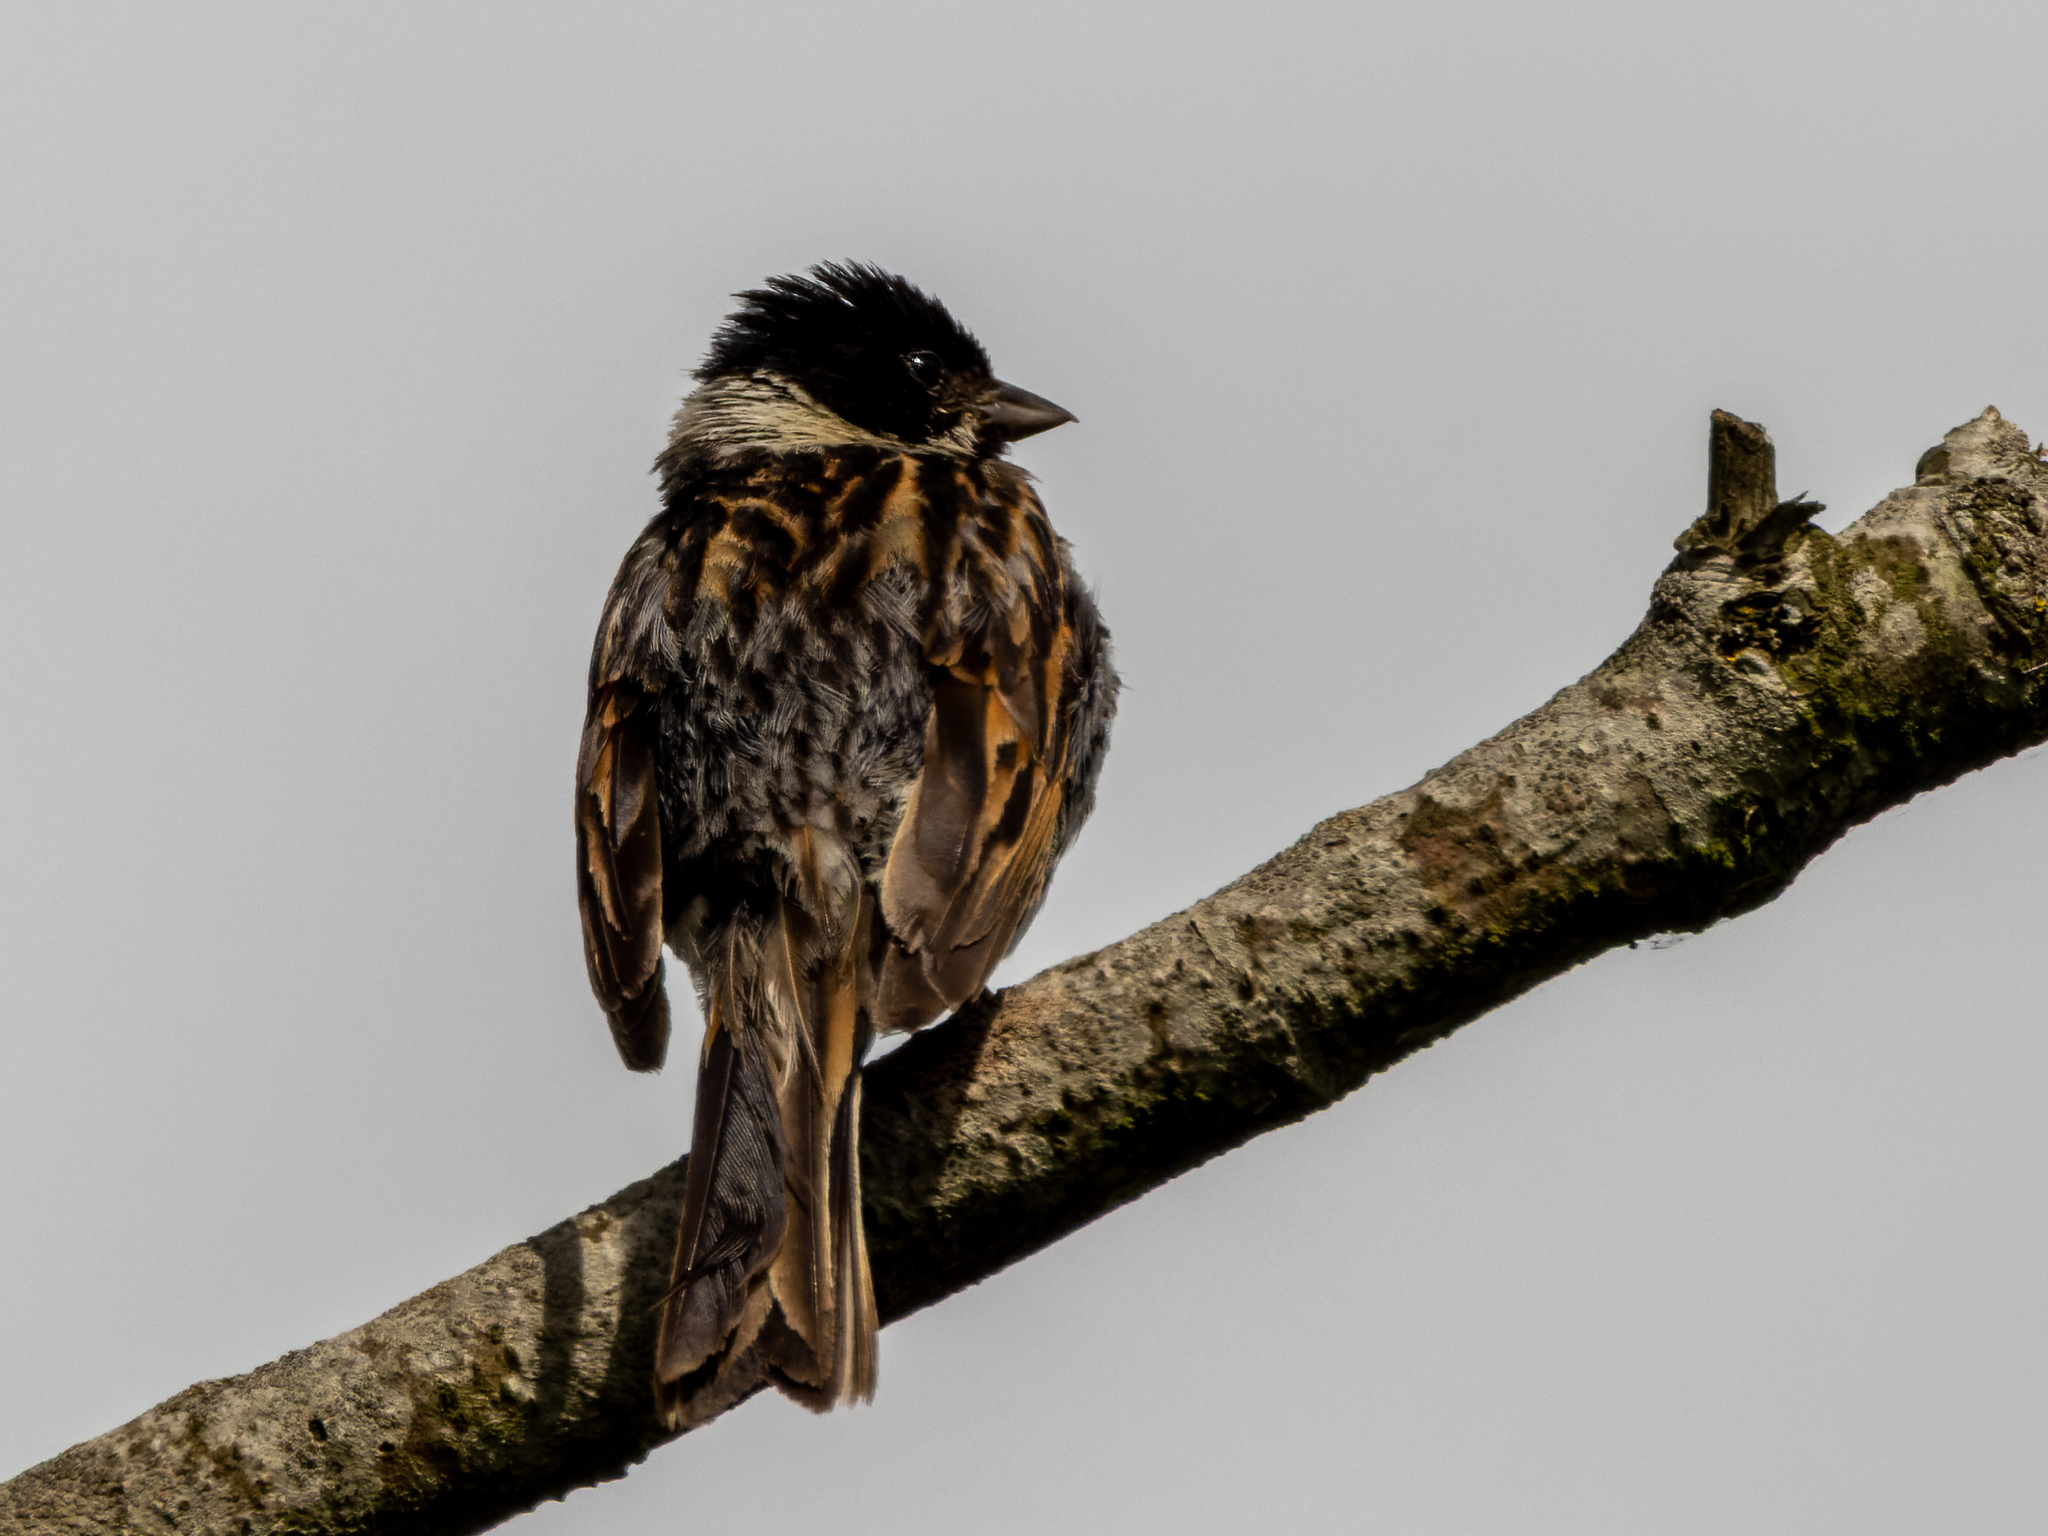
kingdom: Animalia
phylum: Chordata
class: Aves
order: Passeriformes
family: Emberizidae
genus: Emberiza
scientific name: Emberiza schoeniclus
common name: Reed bunting
